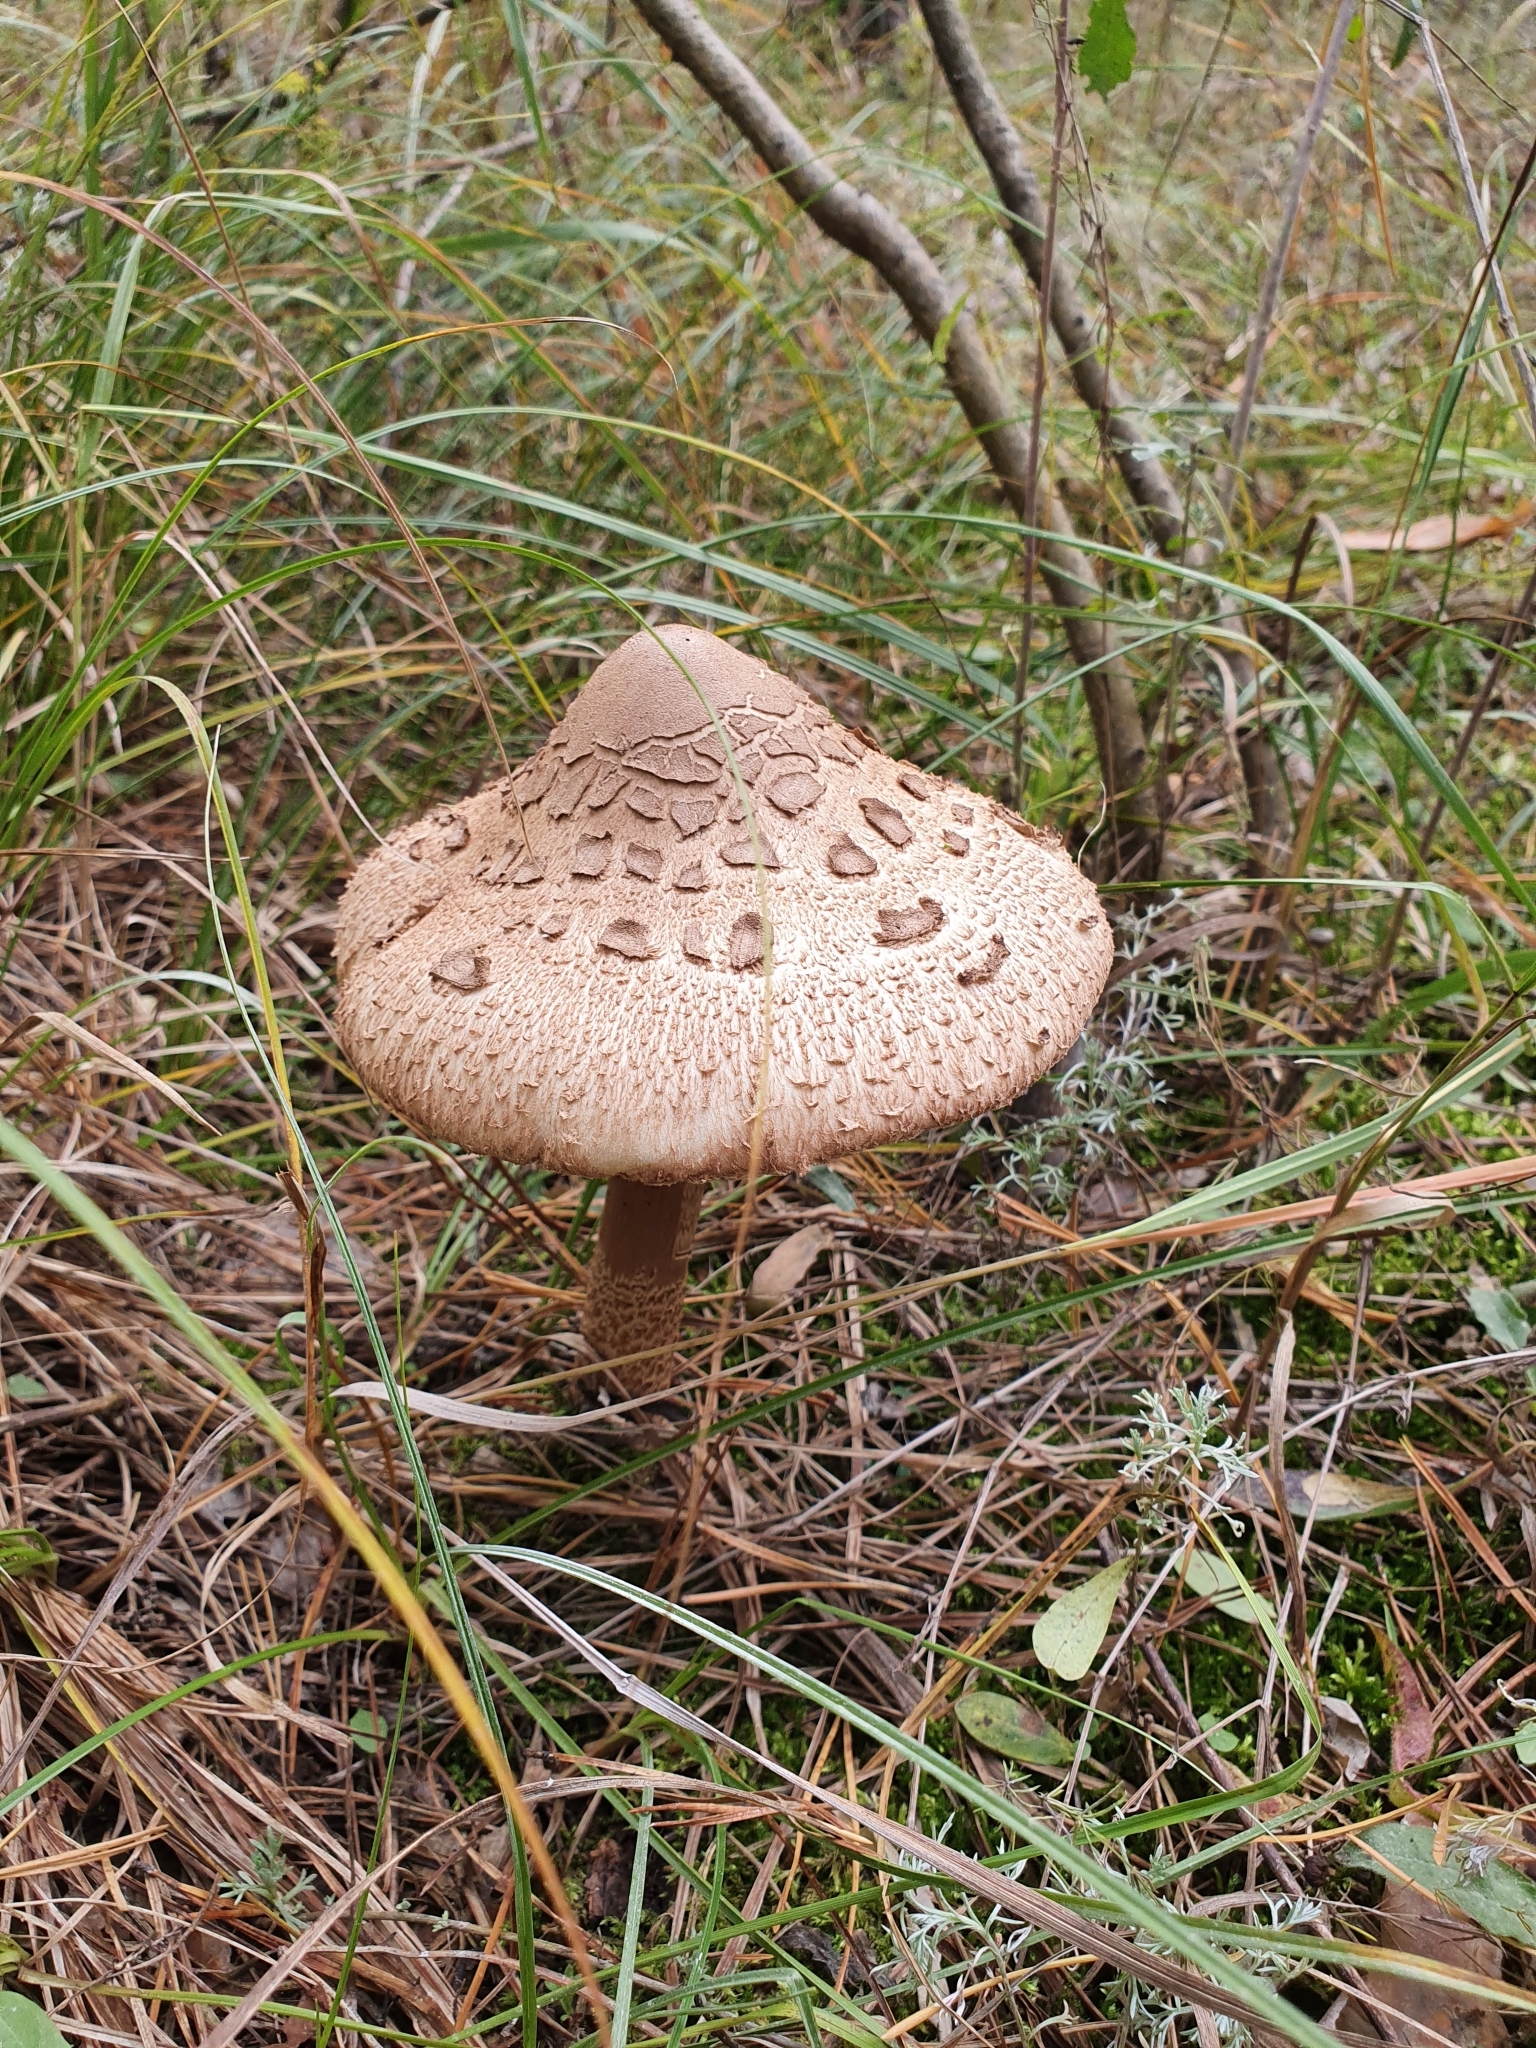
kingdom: Fungi
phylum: Basidiomycota
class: Agaricomycetes
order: Agaricales
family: Agaricaceae
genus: Macrolepiota
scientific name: Macrolepiota procera
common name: Parasol
